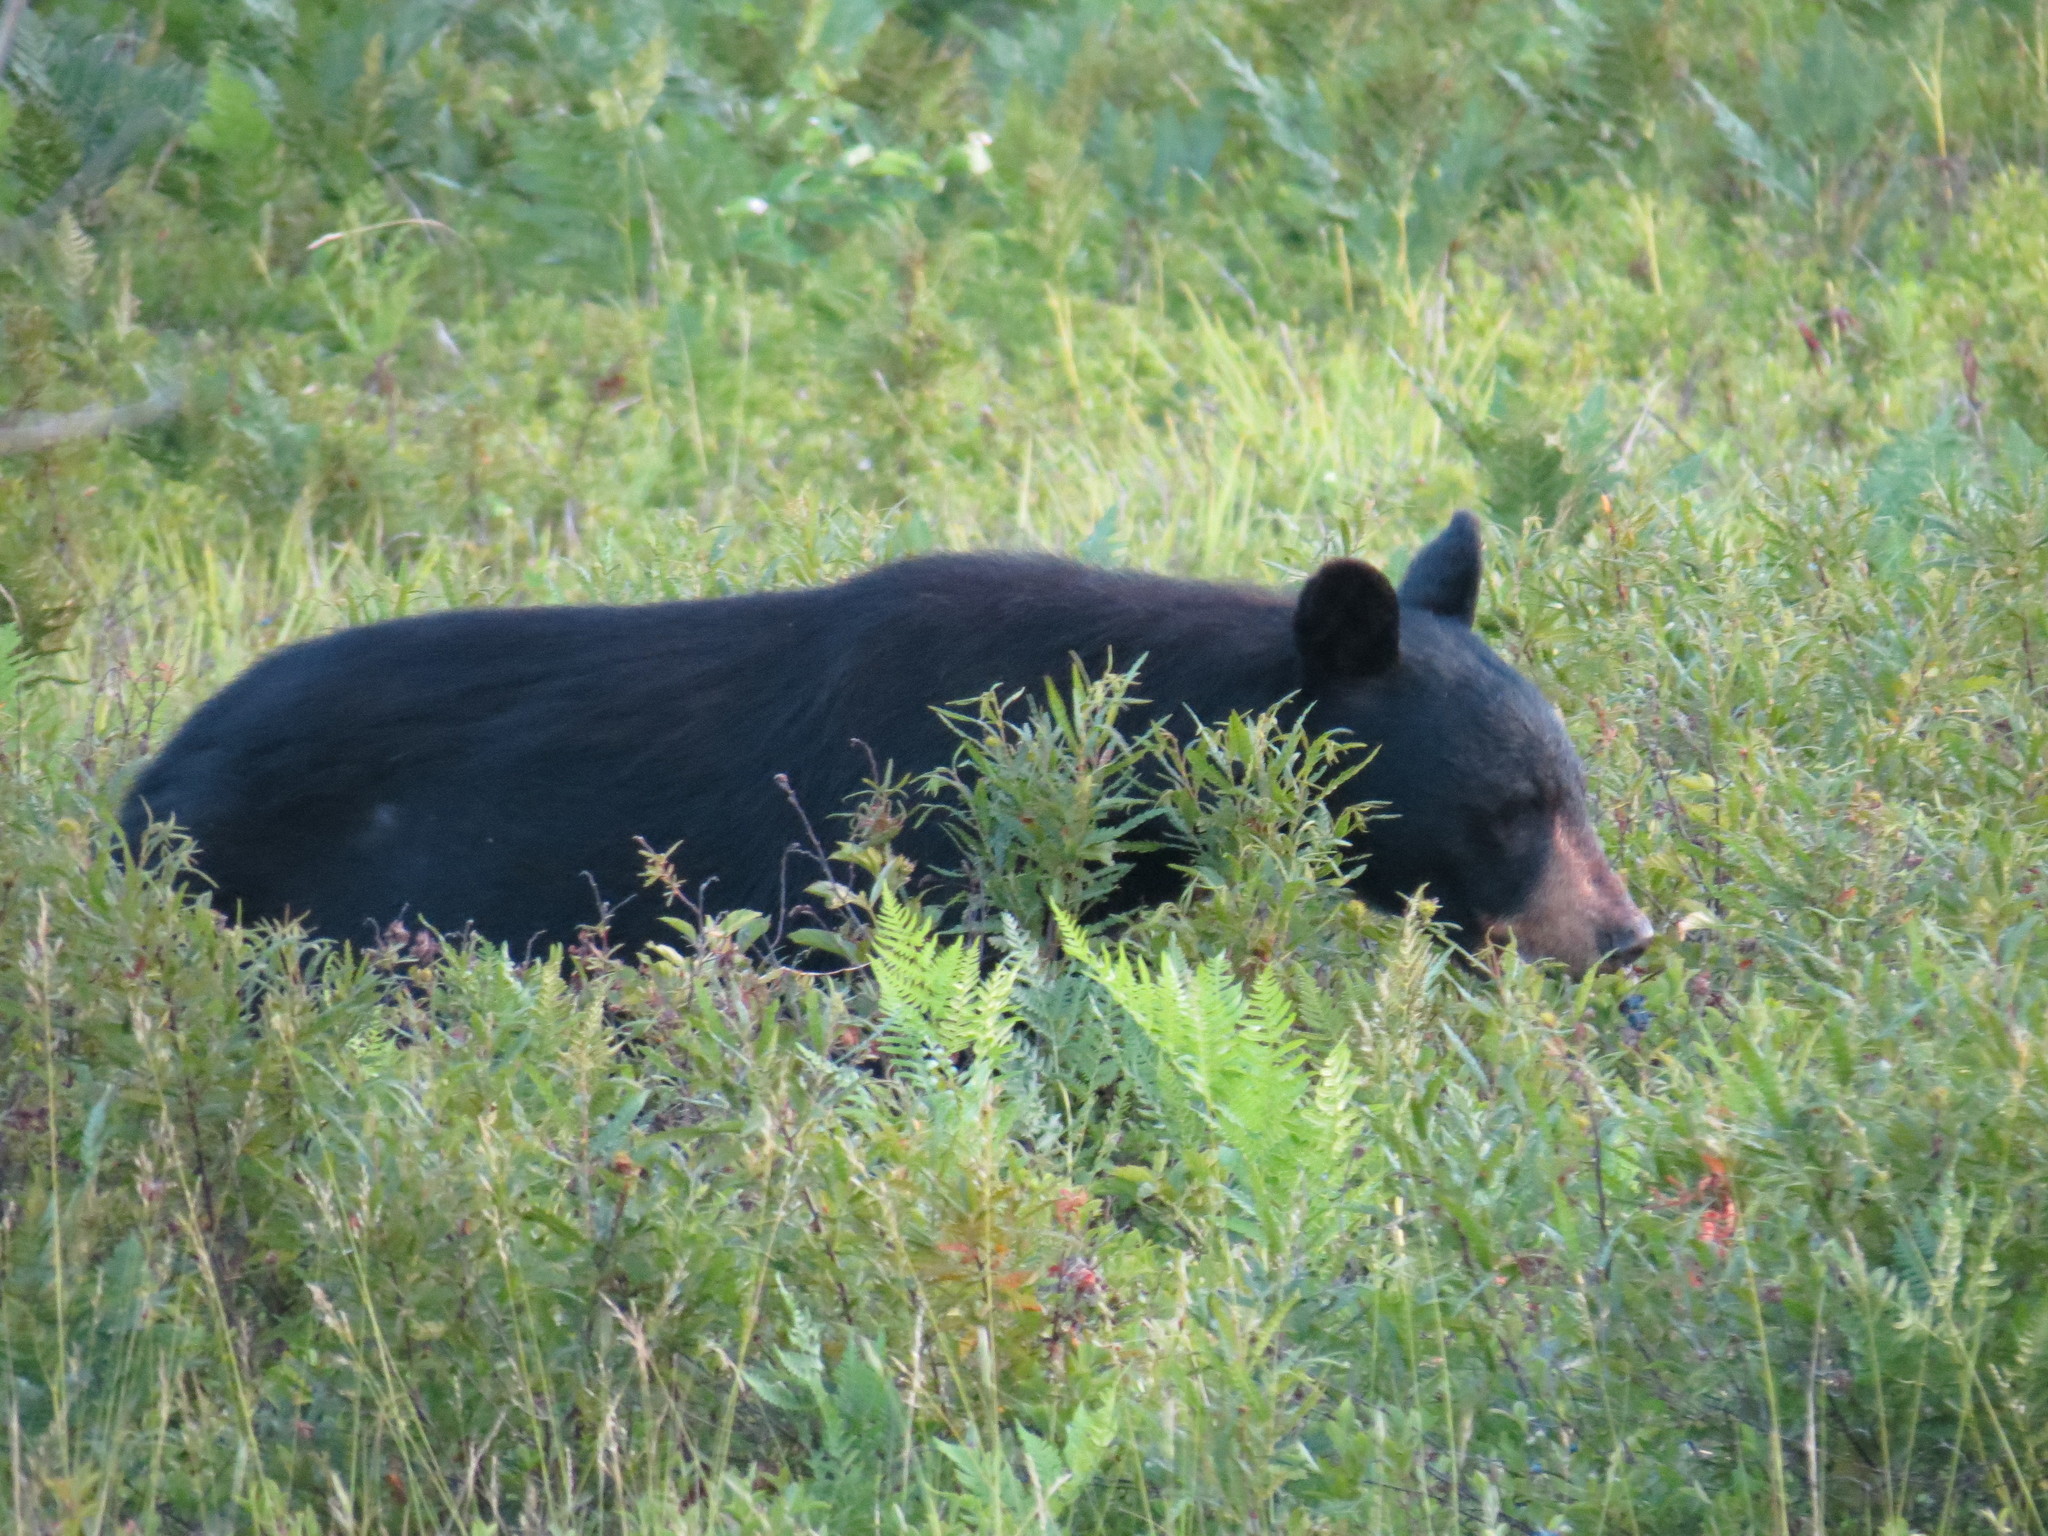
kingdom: Animalia
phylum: Chordata
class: Mammalia
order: Carnivora
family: Ursidae
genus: Ursus
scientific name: Ursus americanus
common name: American black bear
